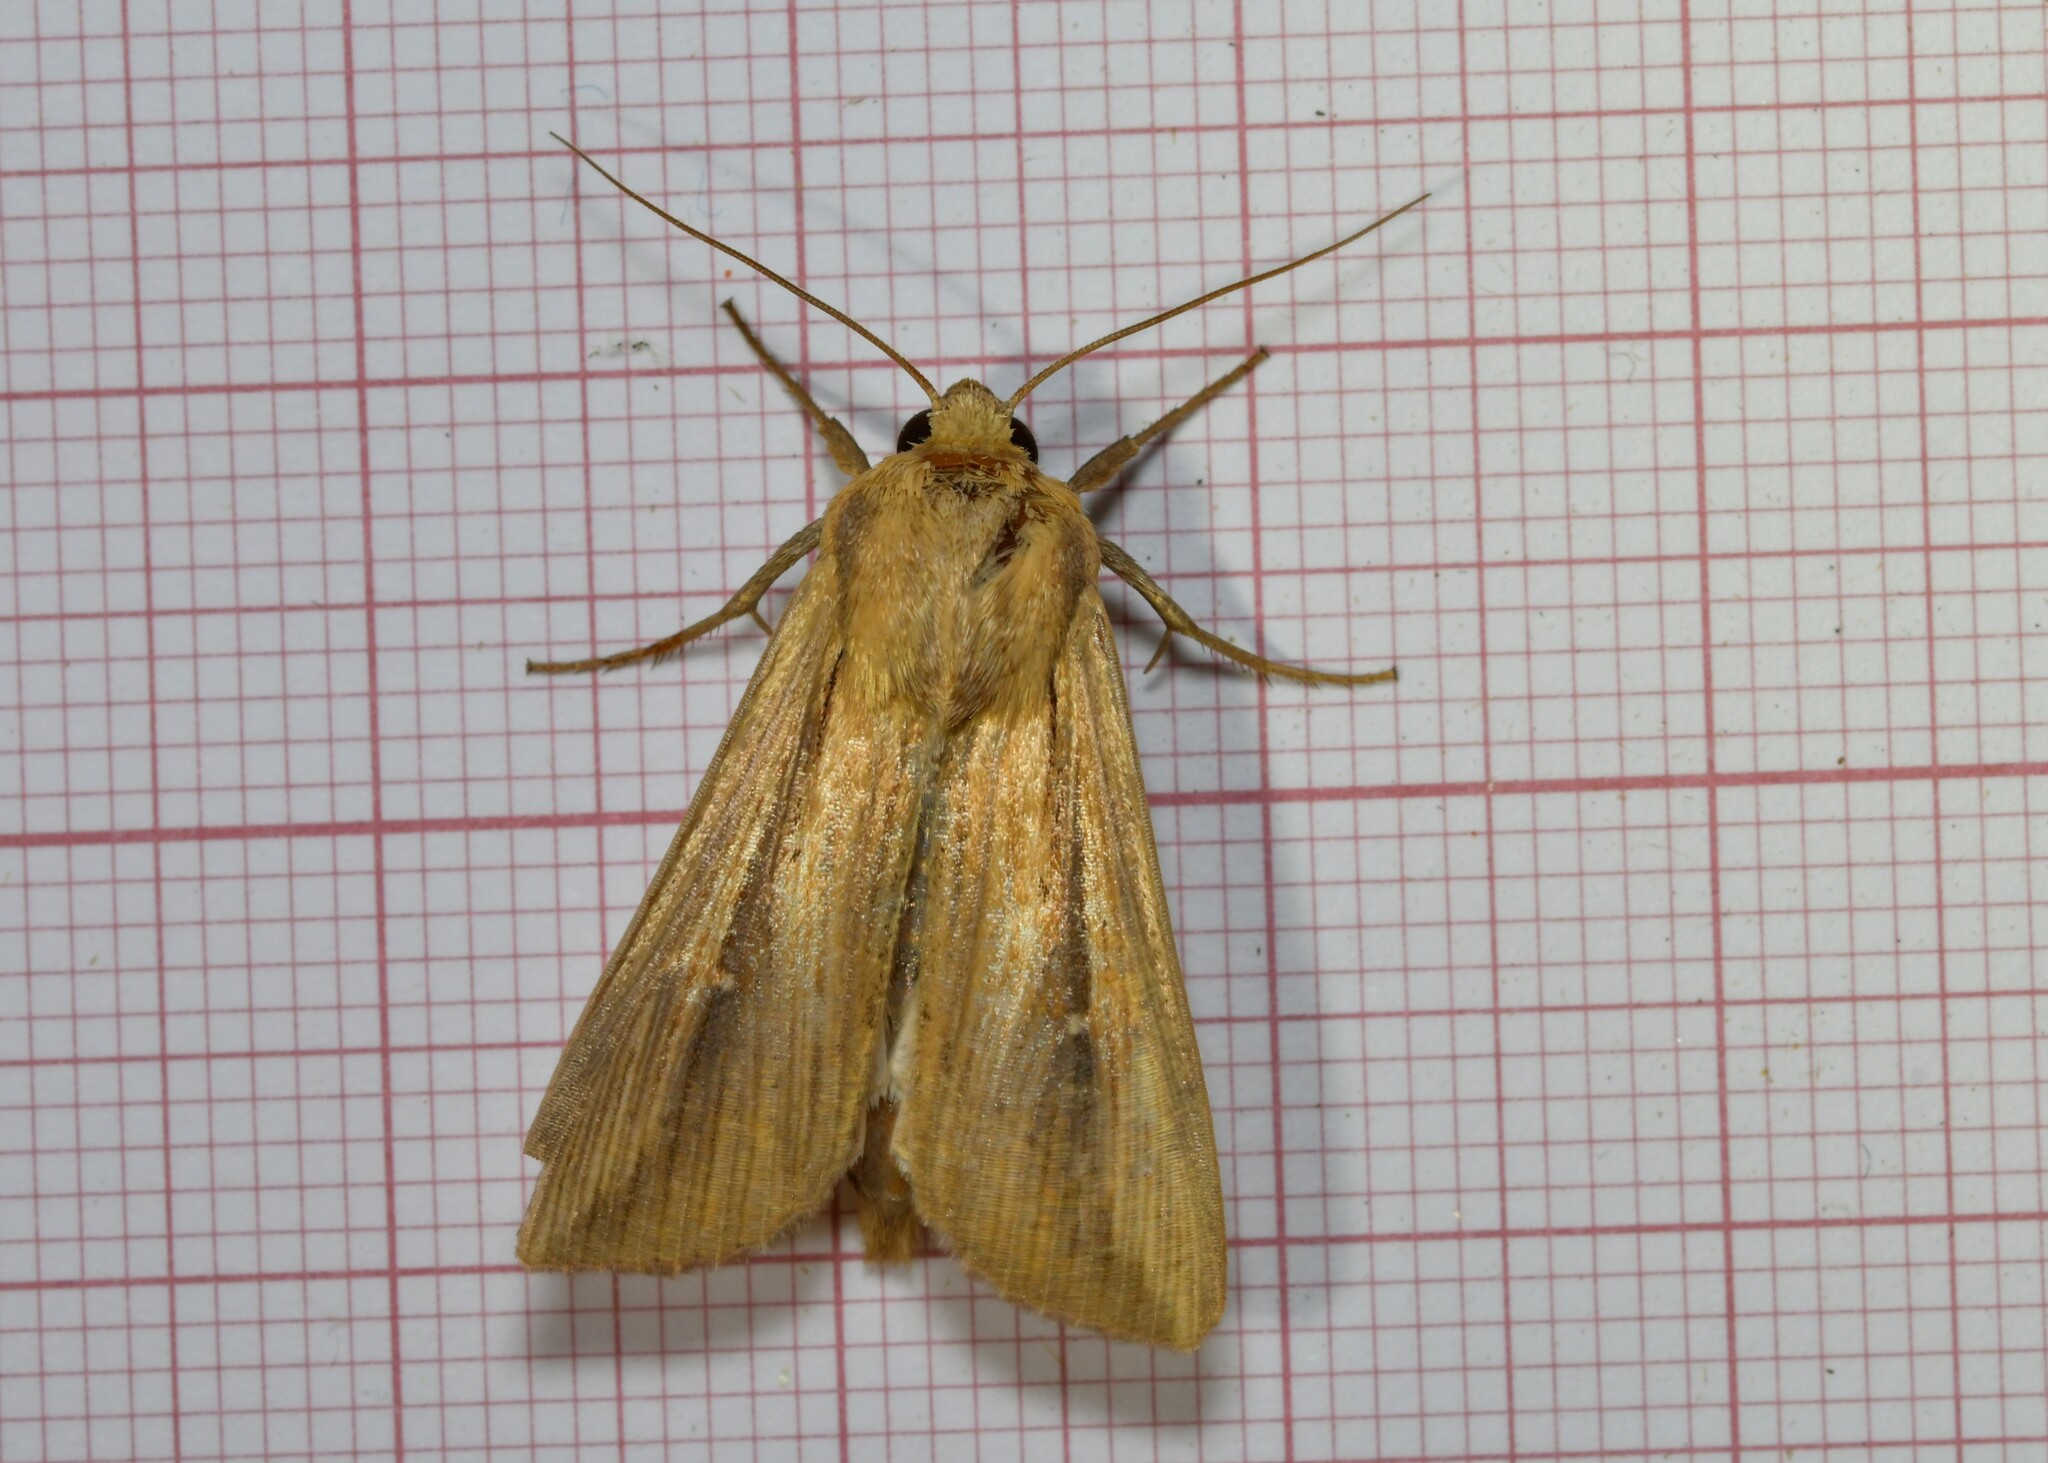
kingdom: Animalia
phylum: Arthropoda
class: Insecta
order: Lepidoptera
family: Noctuidae
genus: Leucania
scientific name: Leucania loreyi
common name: The cosmopolitan
